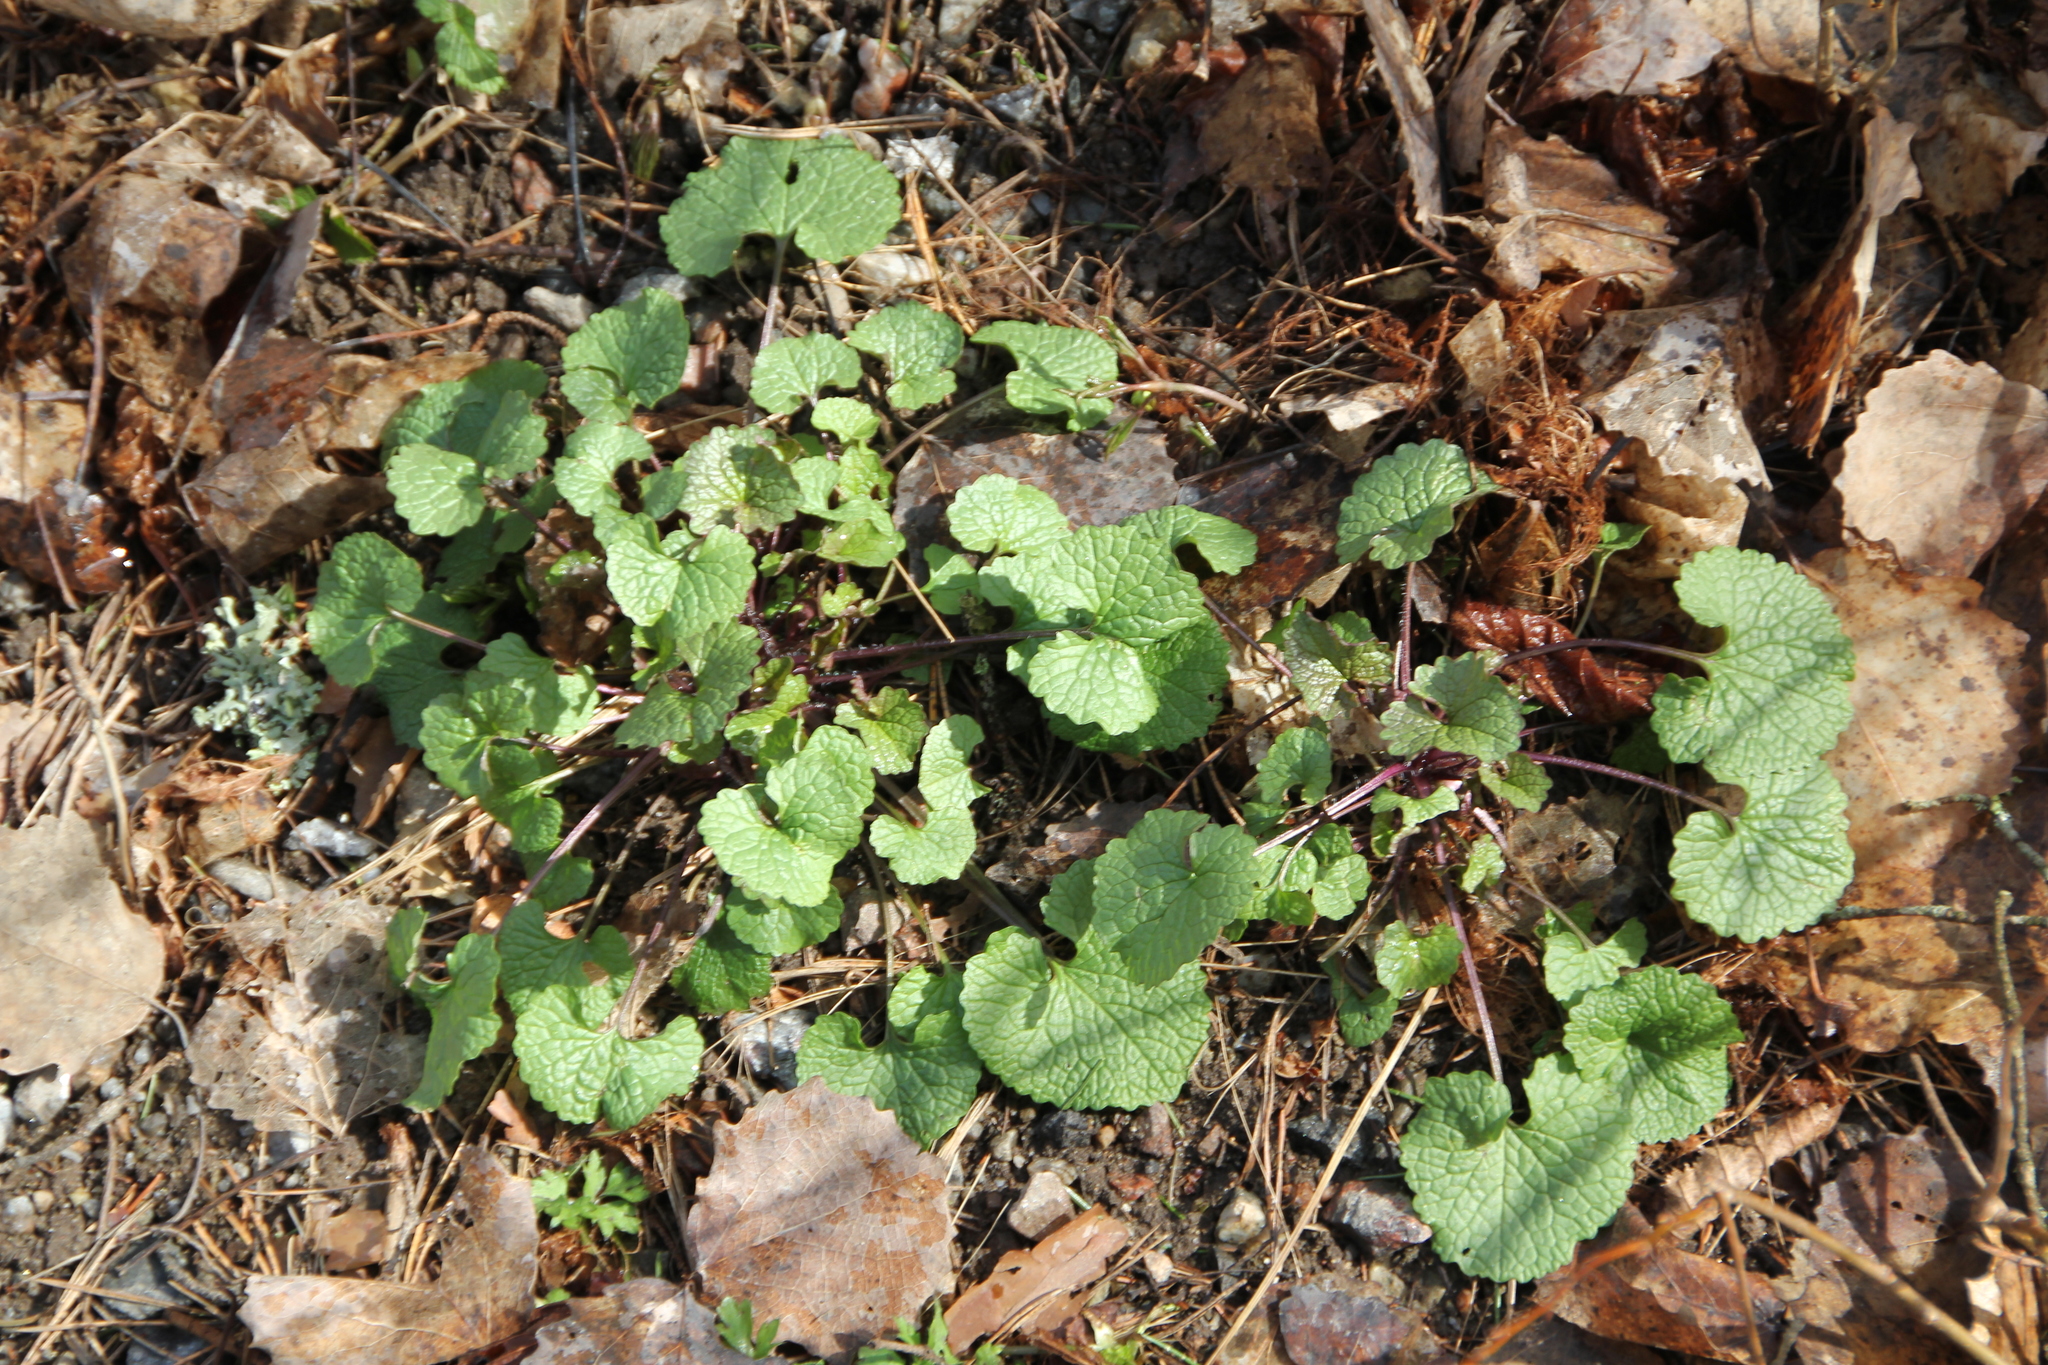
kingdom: Plantae
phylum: Tracheophyta
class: Magnoliopsida
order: Brassicales
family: Brassicaceae
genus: Alliaria
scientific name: Alliaria petiolata
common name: Garlic mustard
